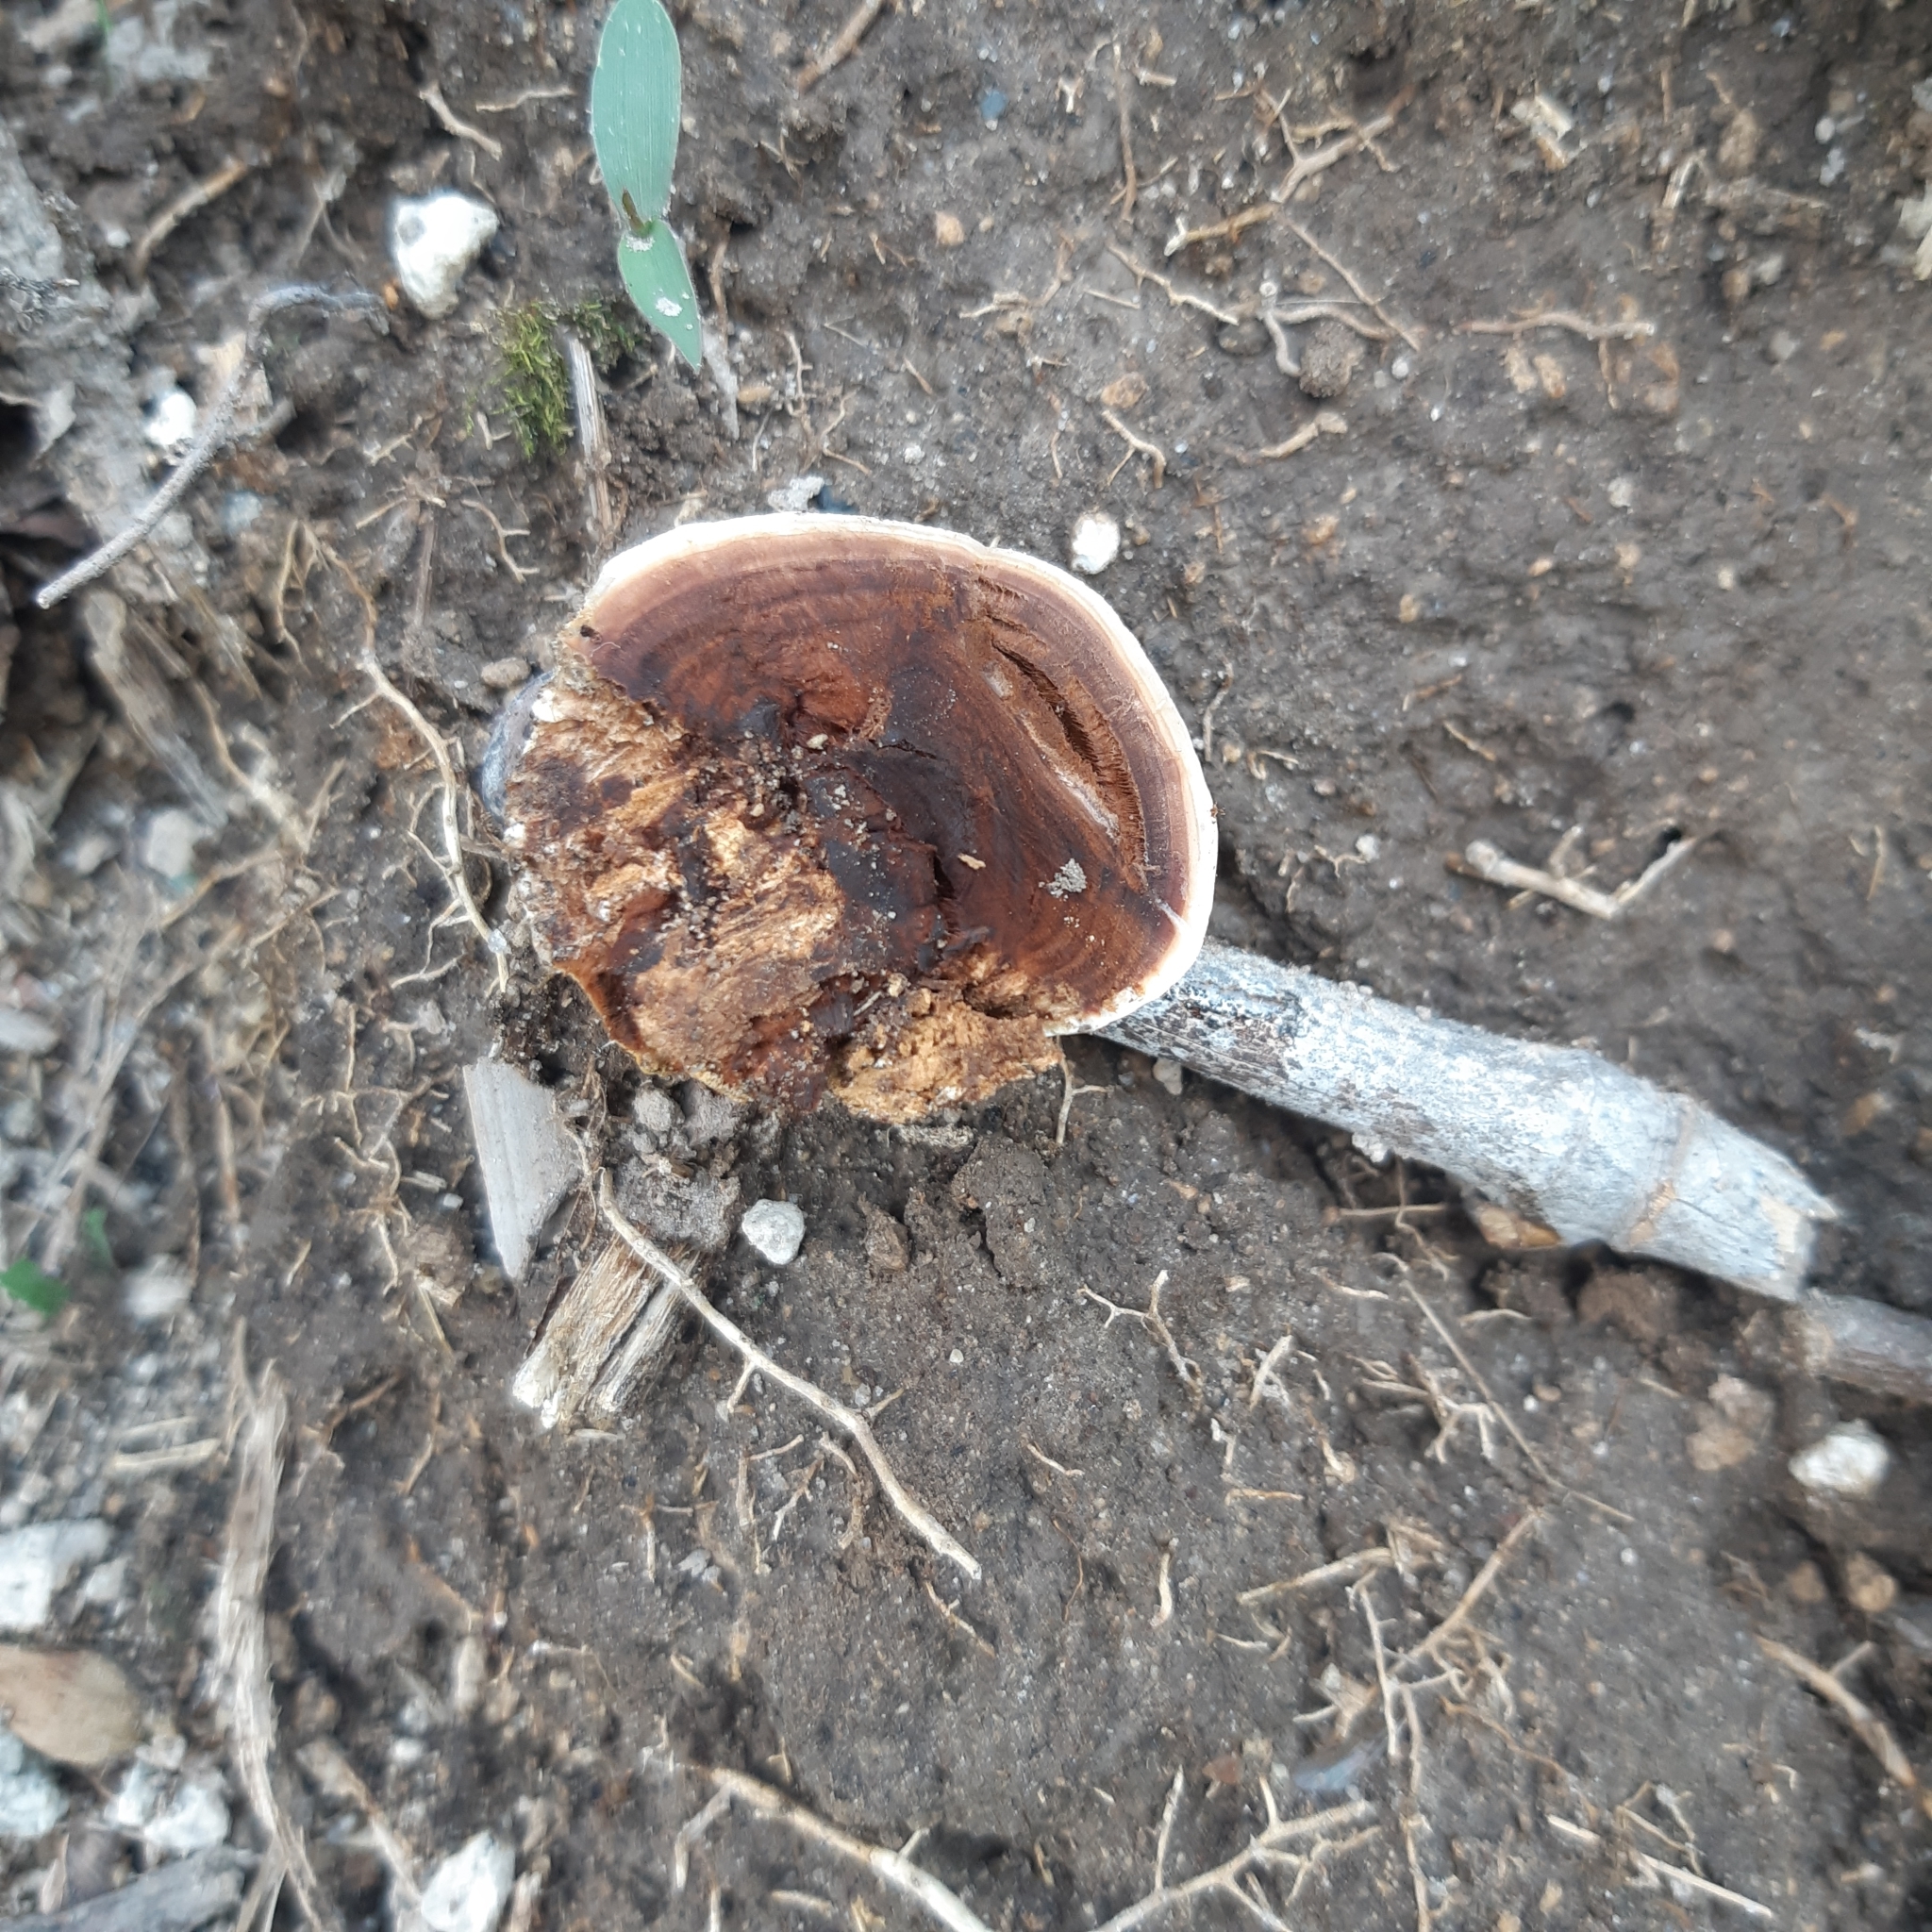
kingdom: Fungi
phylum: Basidiomycota
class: Agaricomycetes
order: Polyporales
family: Polyporaceae
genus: Ganoderma
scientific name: Ganoderma resinaceum
